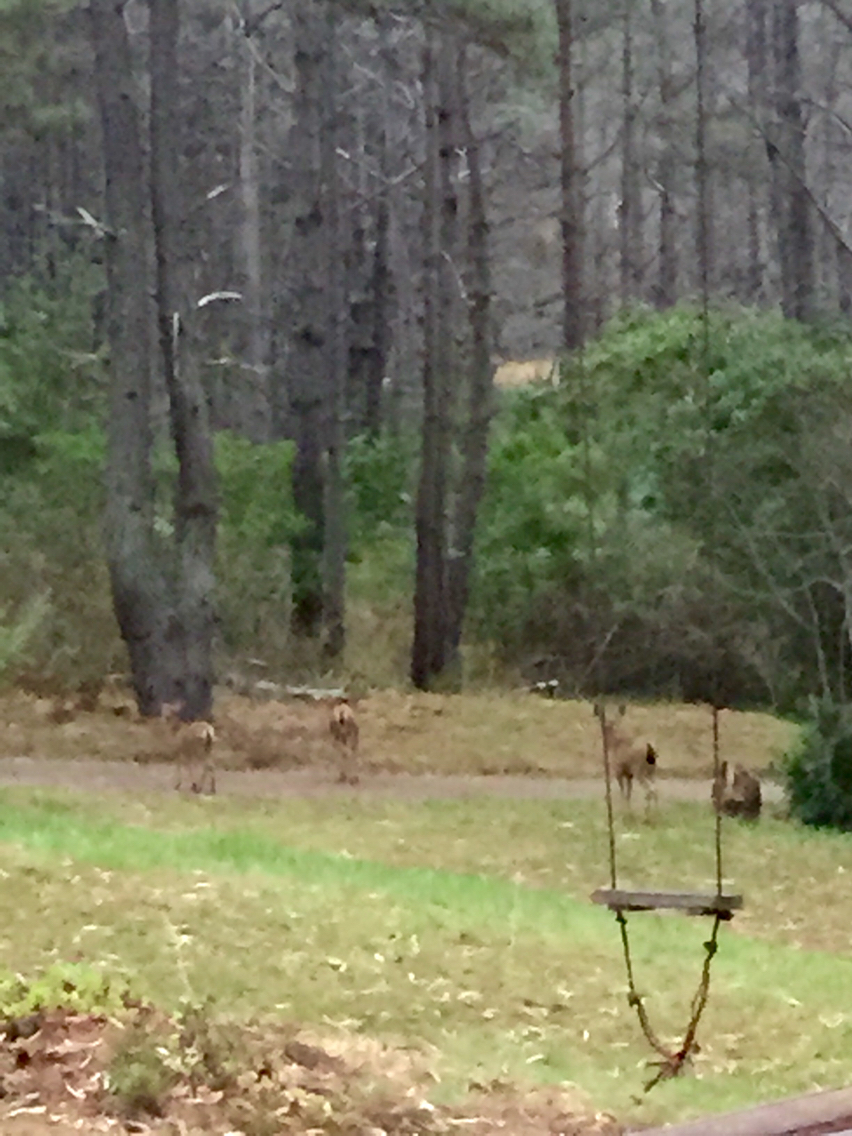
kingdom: Animalia
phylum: Chordata
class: Mammalia
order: Artiodactyla
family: Cervidae
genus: Odocoileus
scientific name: Odocoileus hemionus
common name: Mule deer
